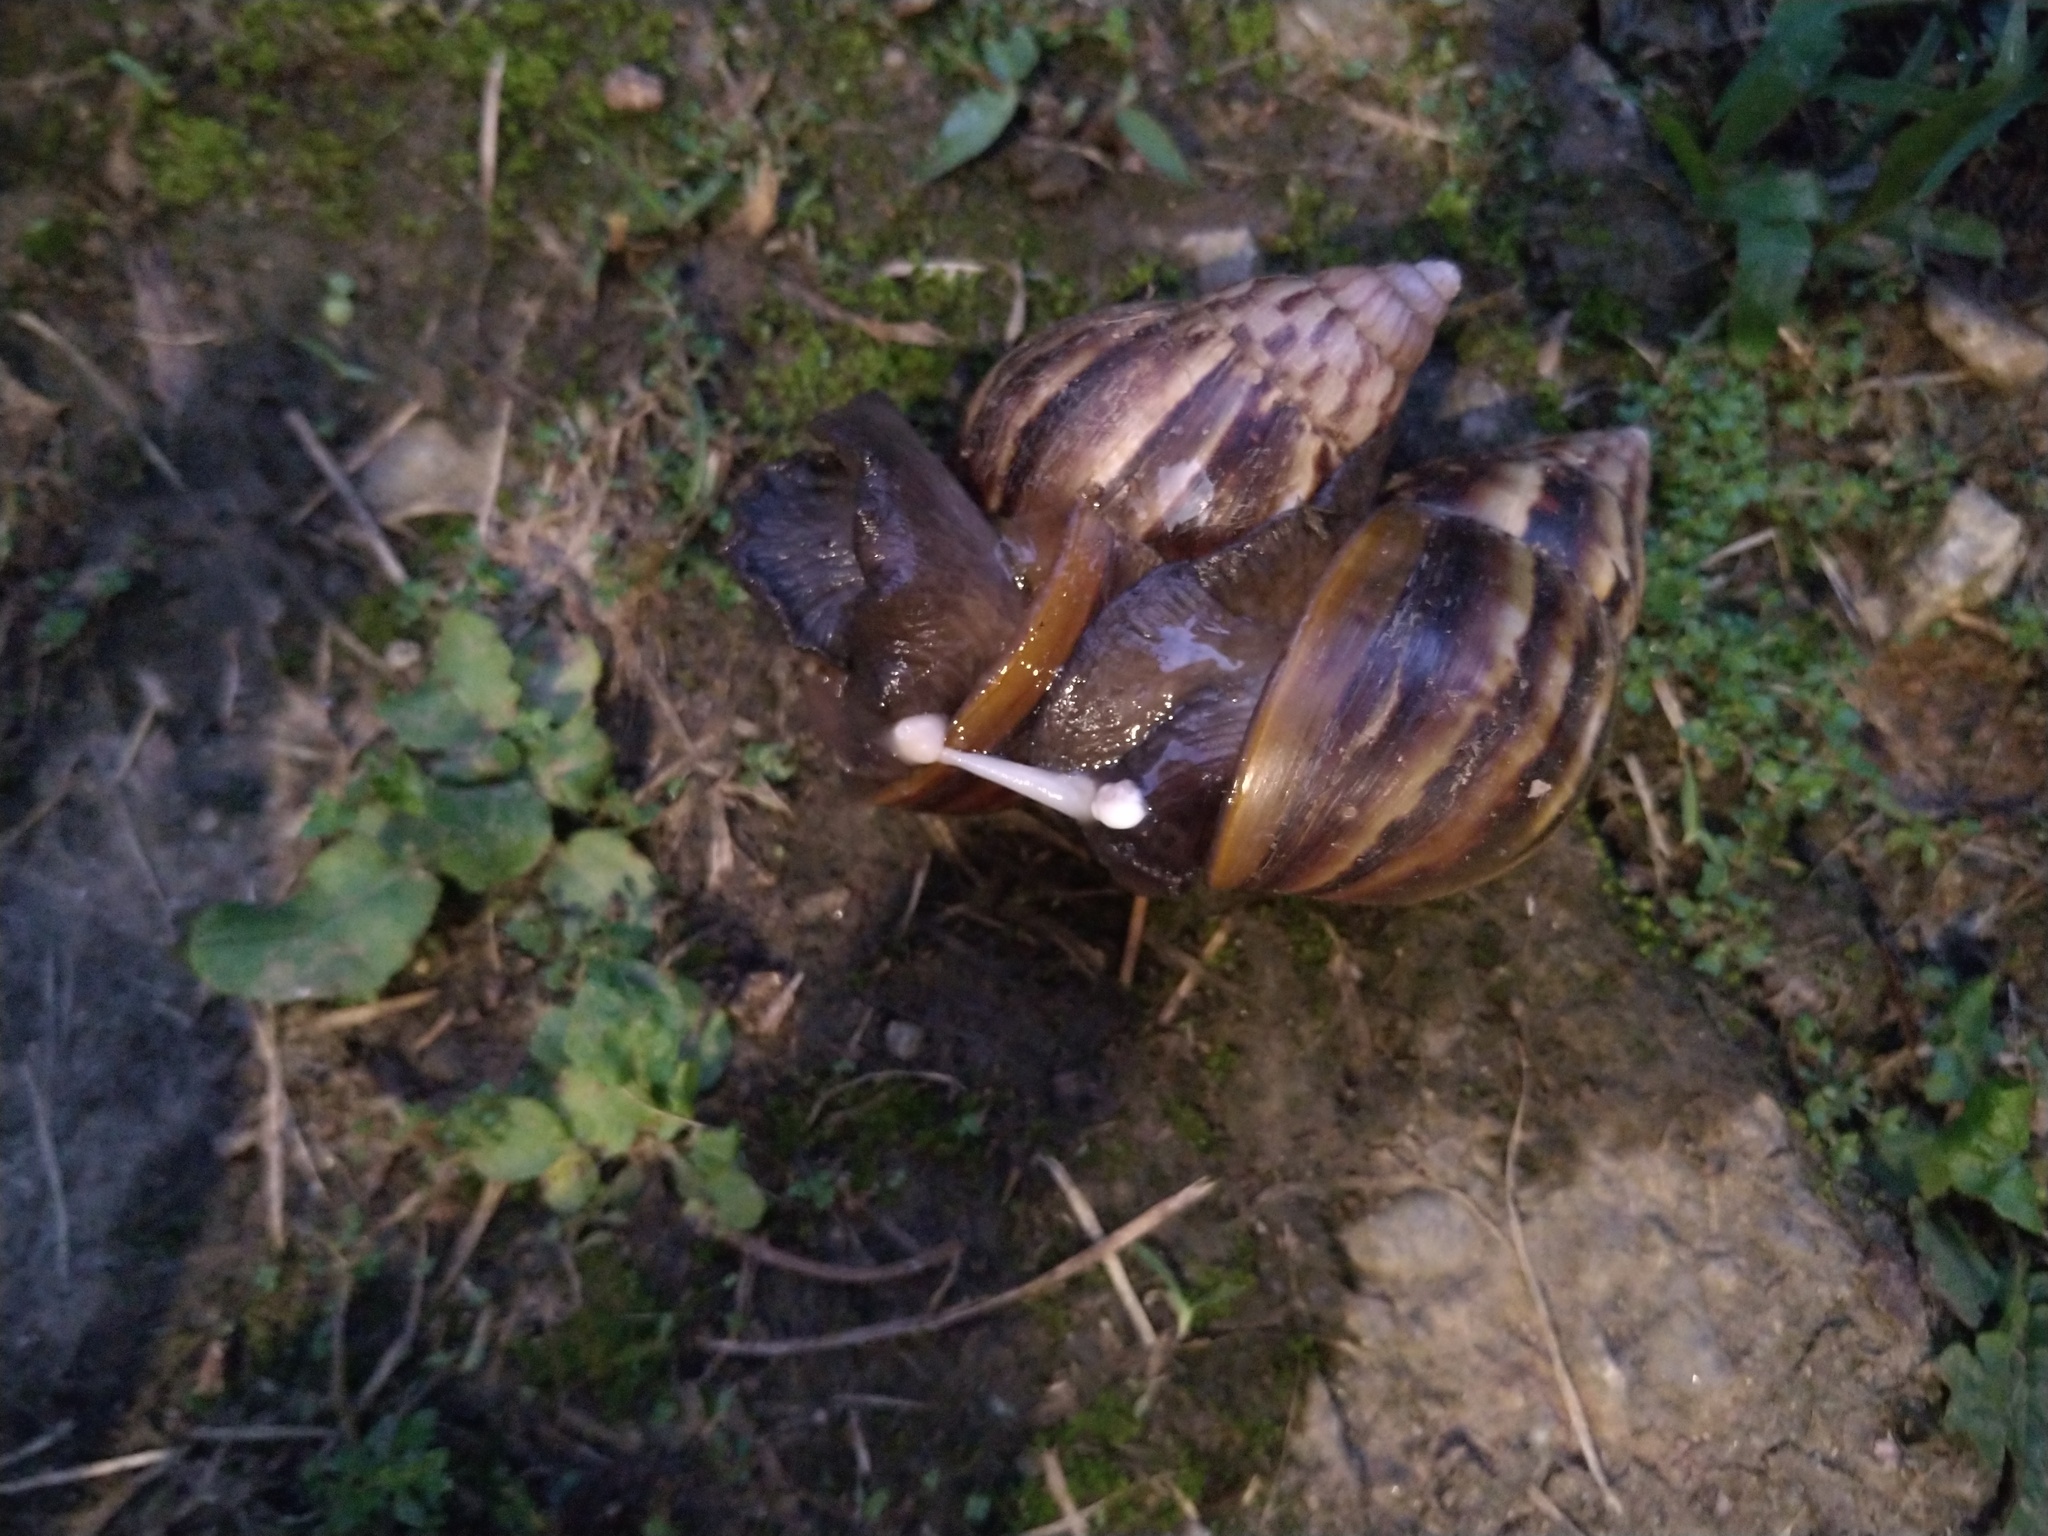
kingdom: Animalia
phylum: Mollusca
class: Gastropoda
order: Stylommatophora
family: Achatinidae
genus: Lissachatina
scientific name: Lissachatina fulica
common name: Giant african snail
